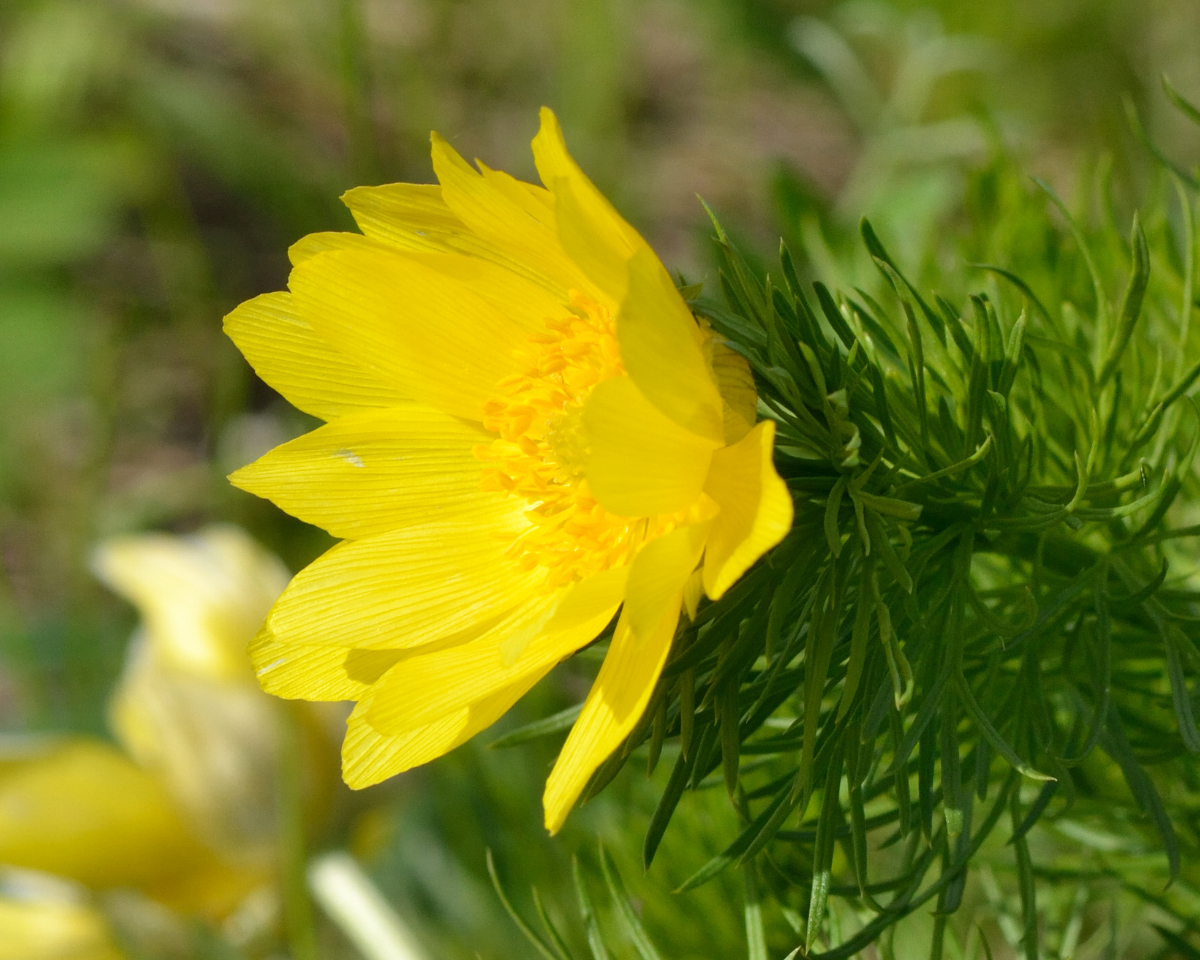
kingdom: Plantae
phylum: Tracheophyta
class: Magnoliopsida
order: Ranunculales
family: Ranunculaceae
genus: Adonis
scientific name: Adonis vernalis
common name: Yellow pheasants-eye
